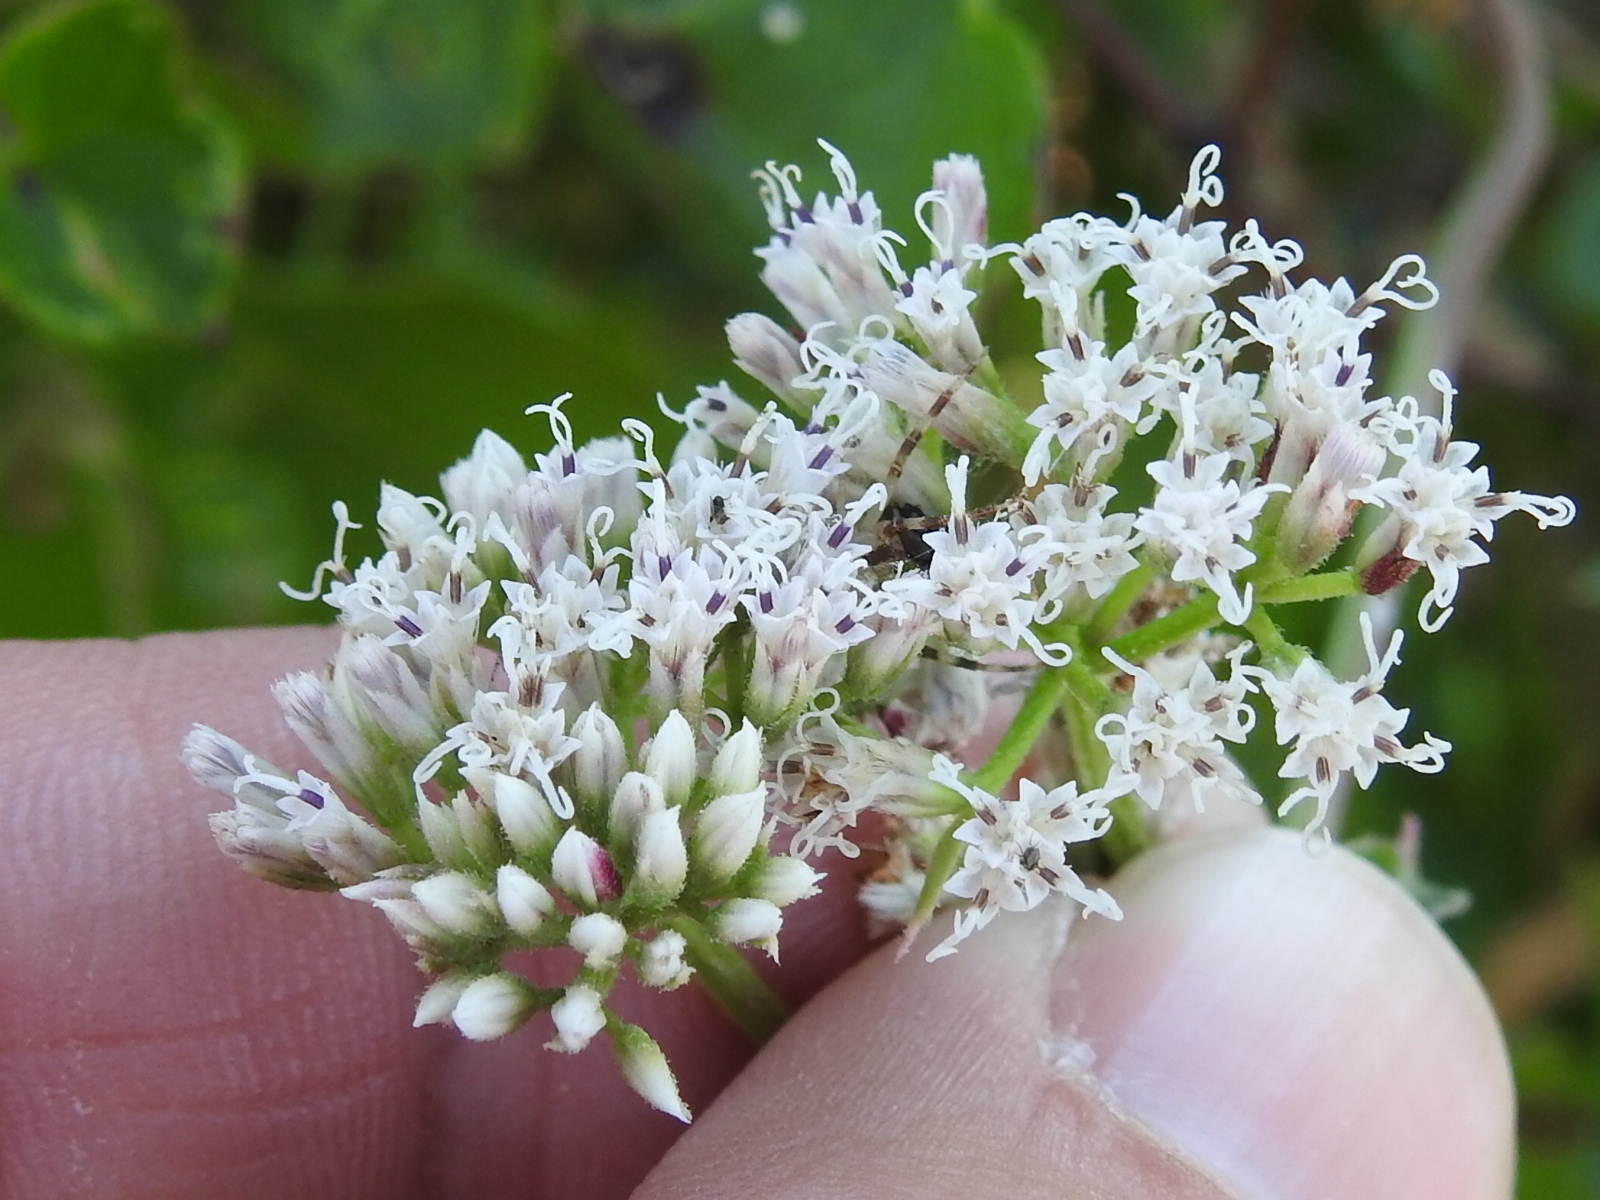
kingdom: Plantae
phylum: Tracheophyta
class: Magnoliopsida
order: Asterales
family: Asteraceae
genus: Mikania
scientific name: Mikania scandens
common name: Climbing hempvine
